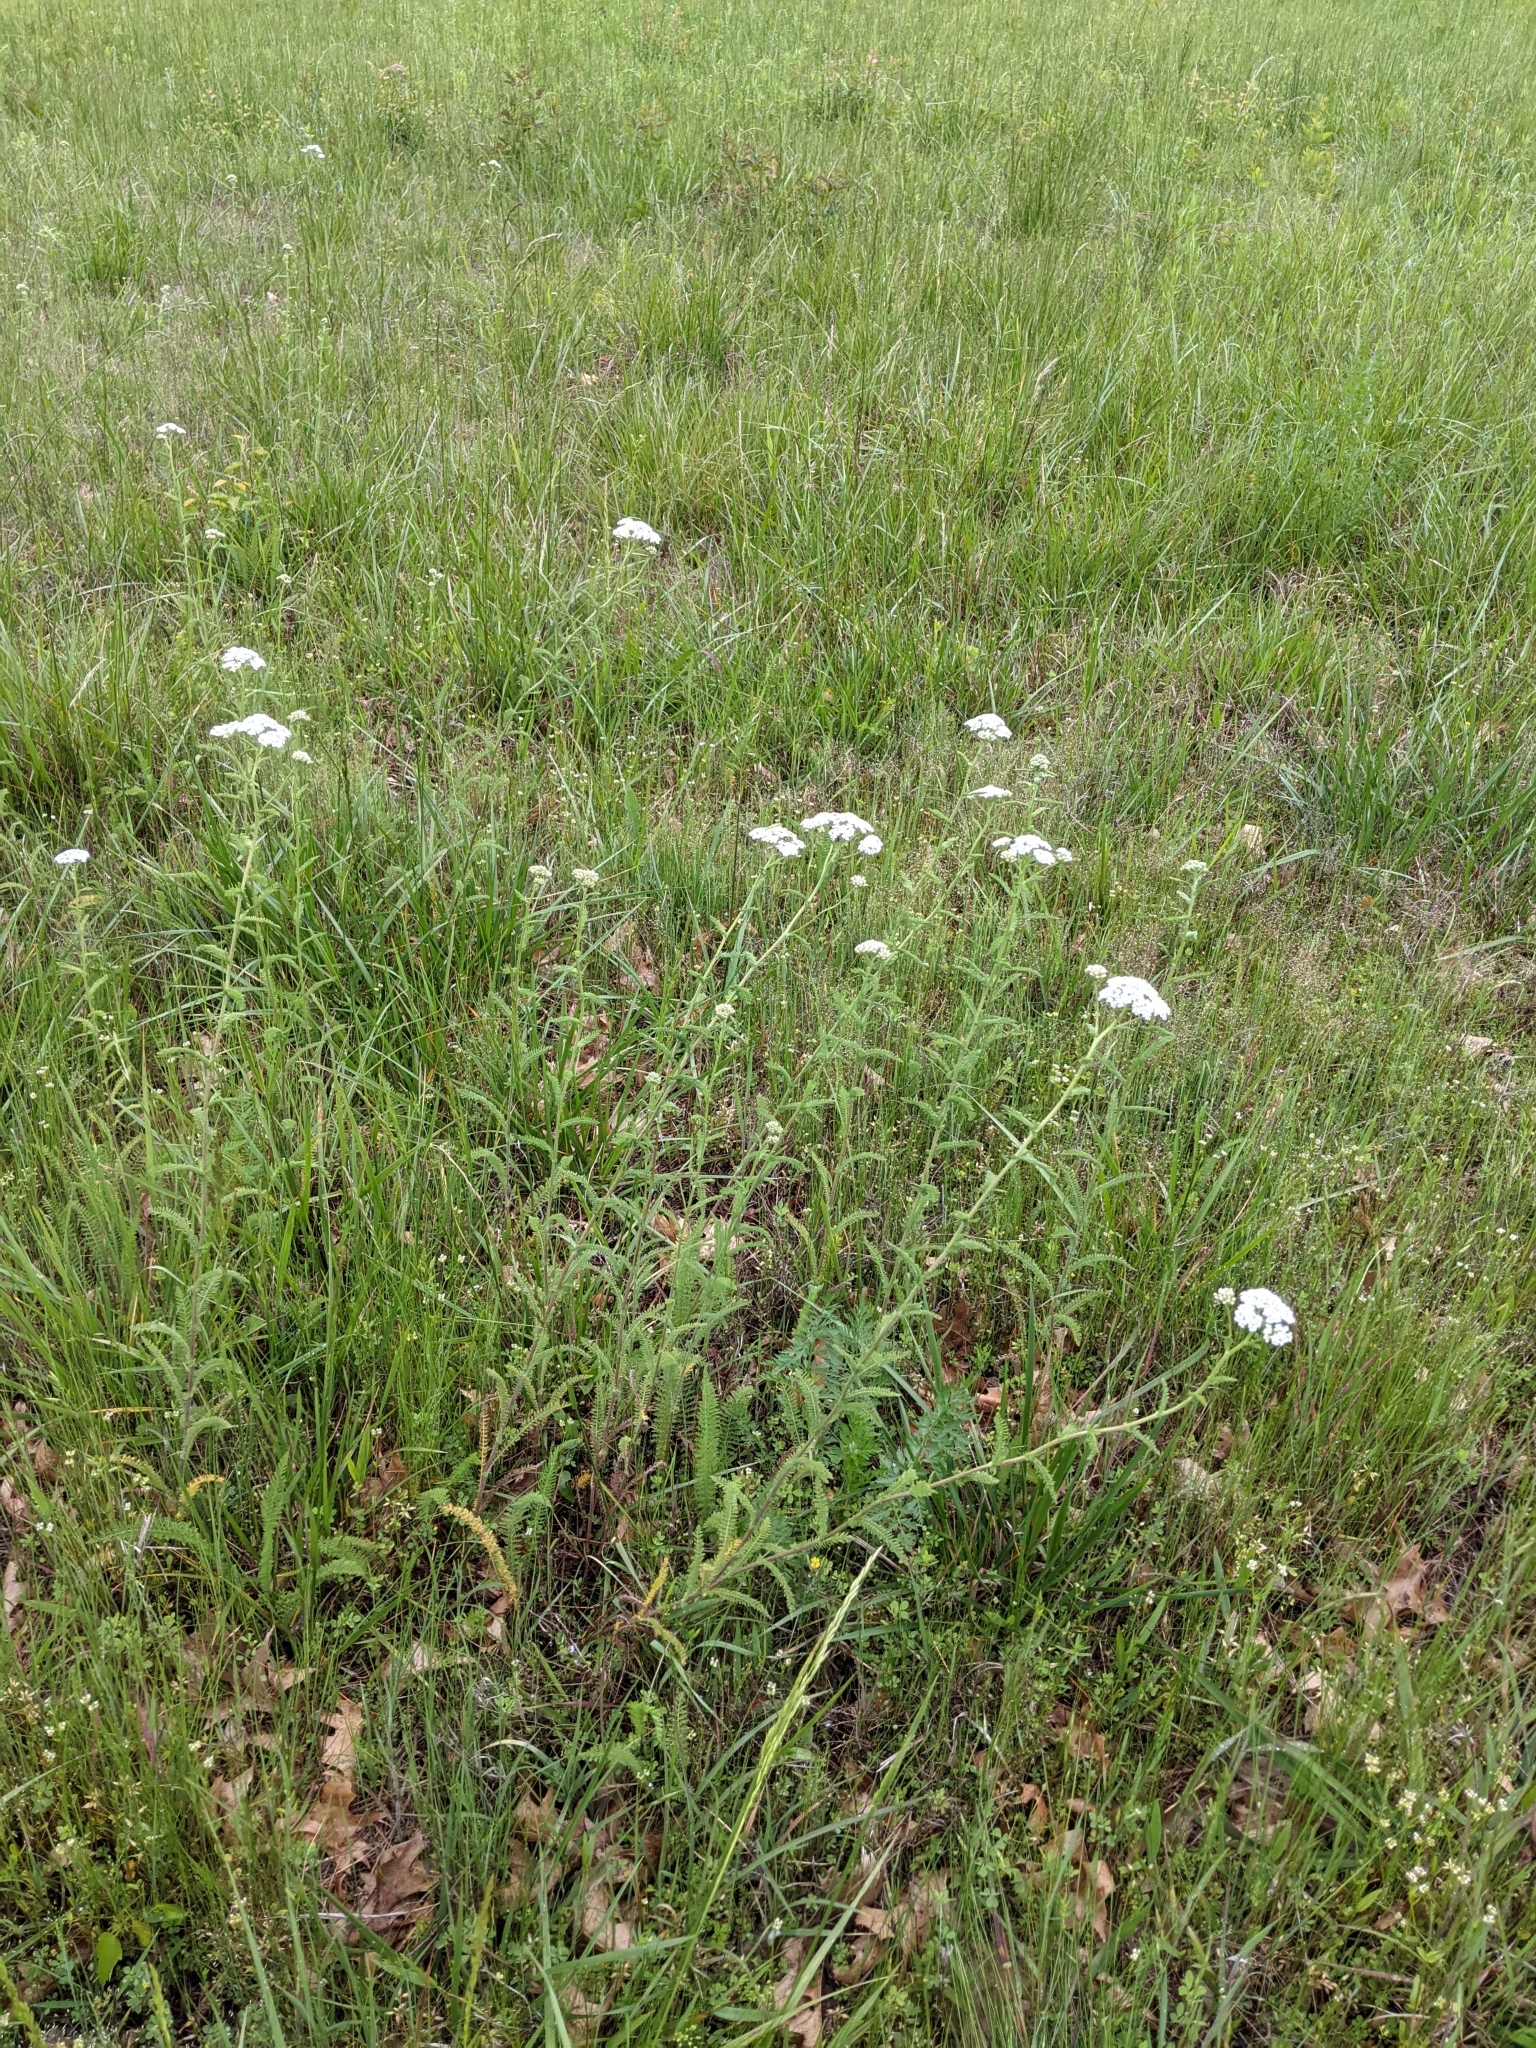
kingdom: Plantae
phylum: Tracheophyta
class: Magnoliopsida
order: Asterales
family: Asteraceae
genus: Achillea
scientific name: Achillea millefolium
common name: Yarrow
